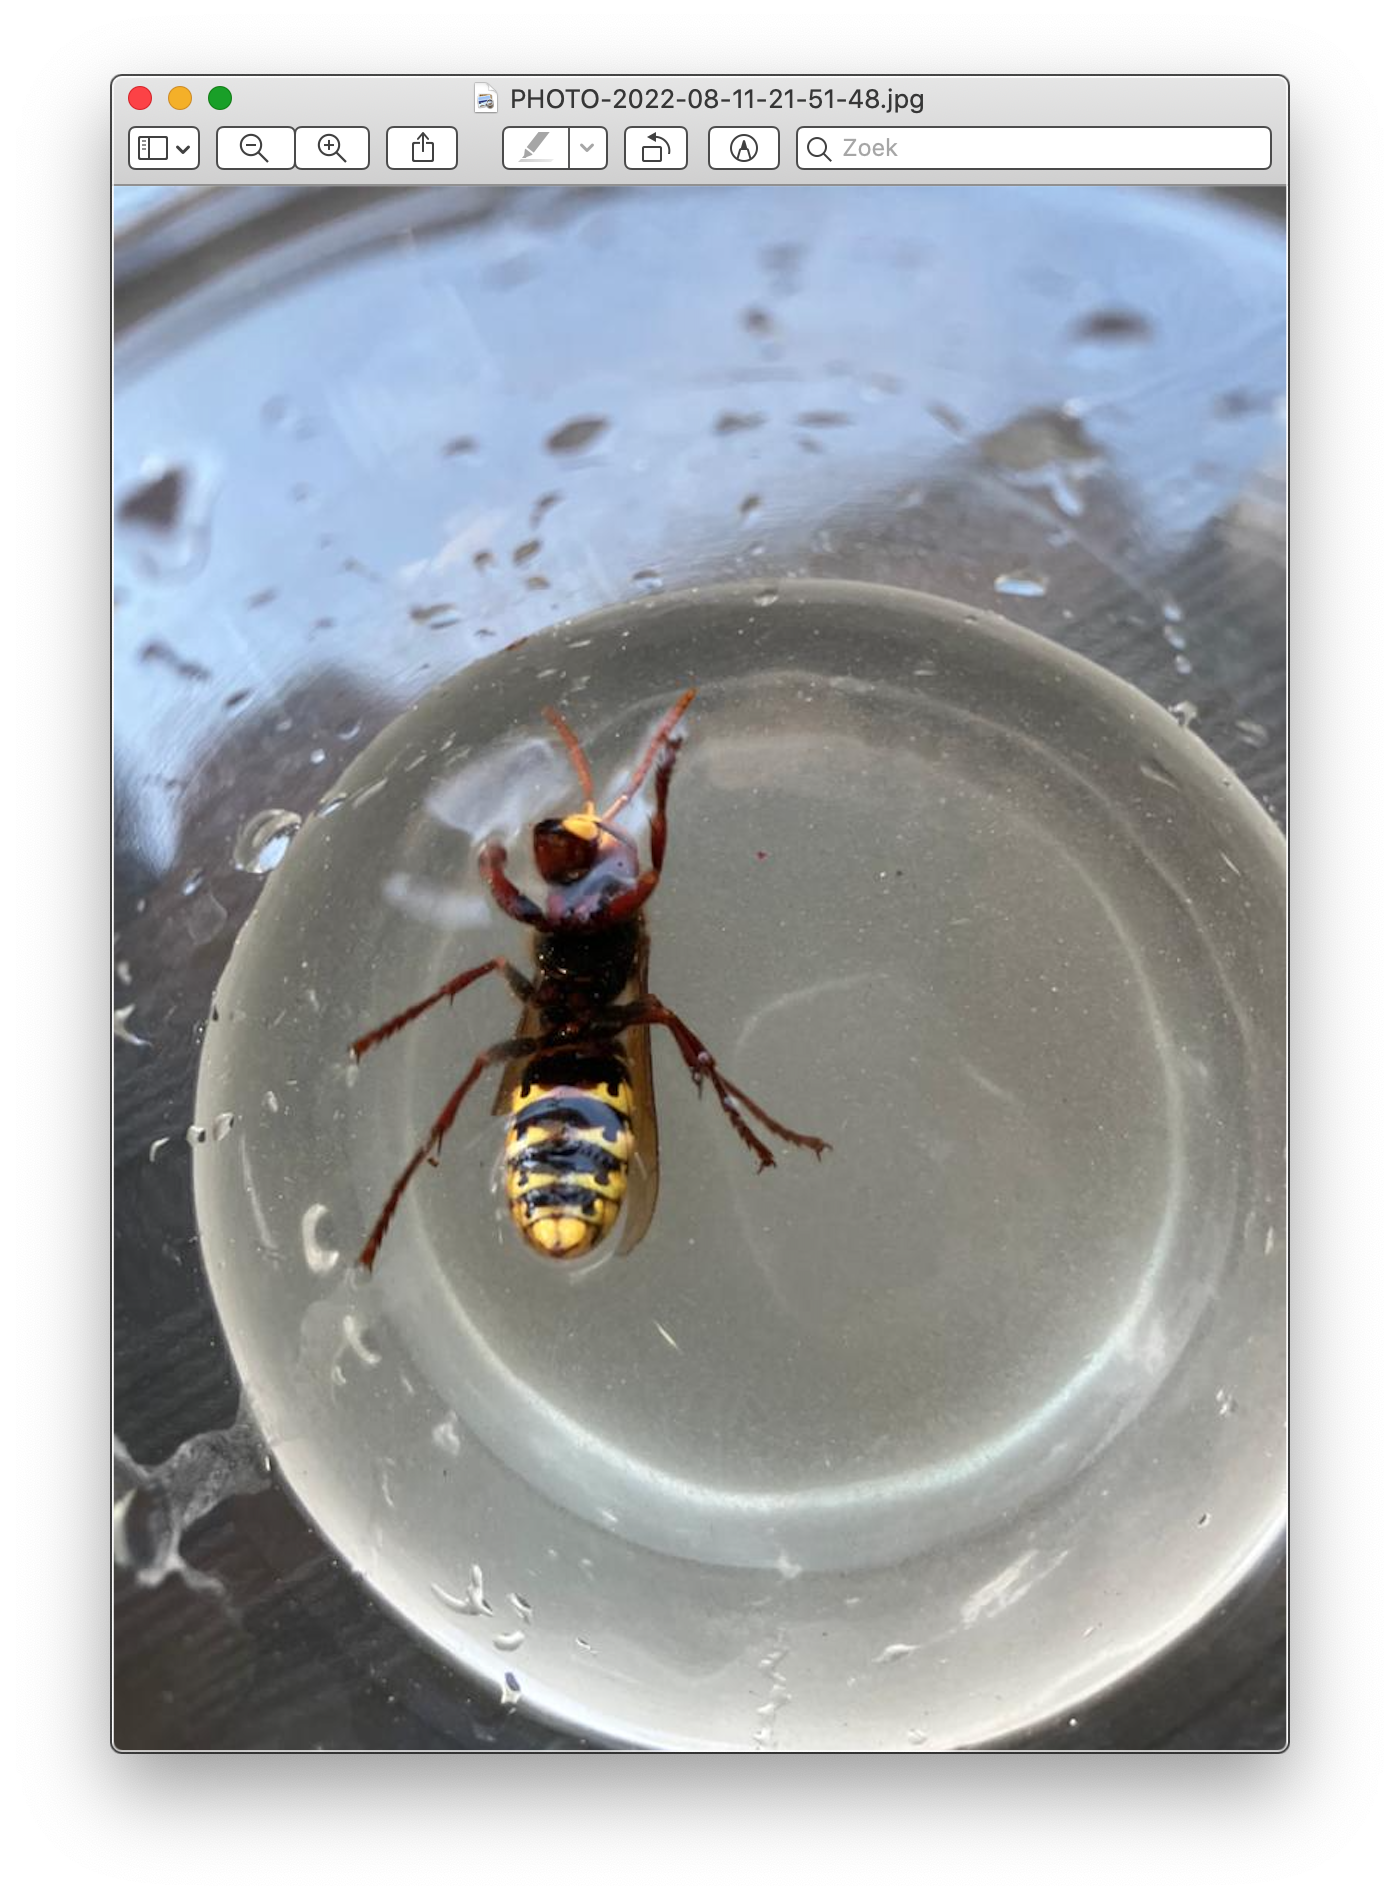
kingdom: Animalia
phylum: Arthropoda
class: Insecta
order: Hymenoptera
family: Vespidae
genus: Vespa
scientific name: Vespa crabro
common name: Hornet
